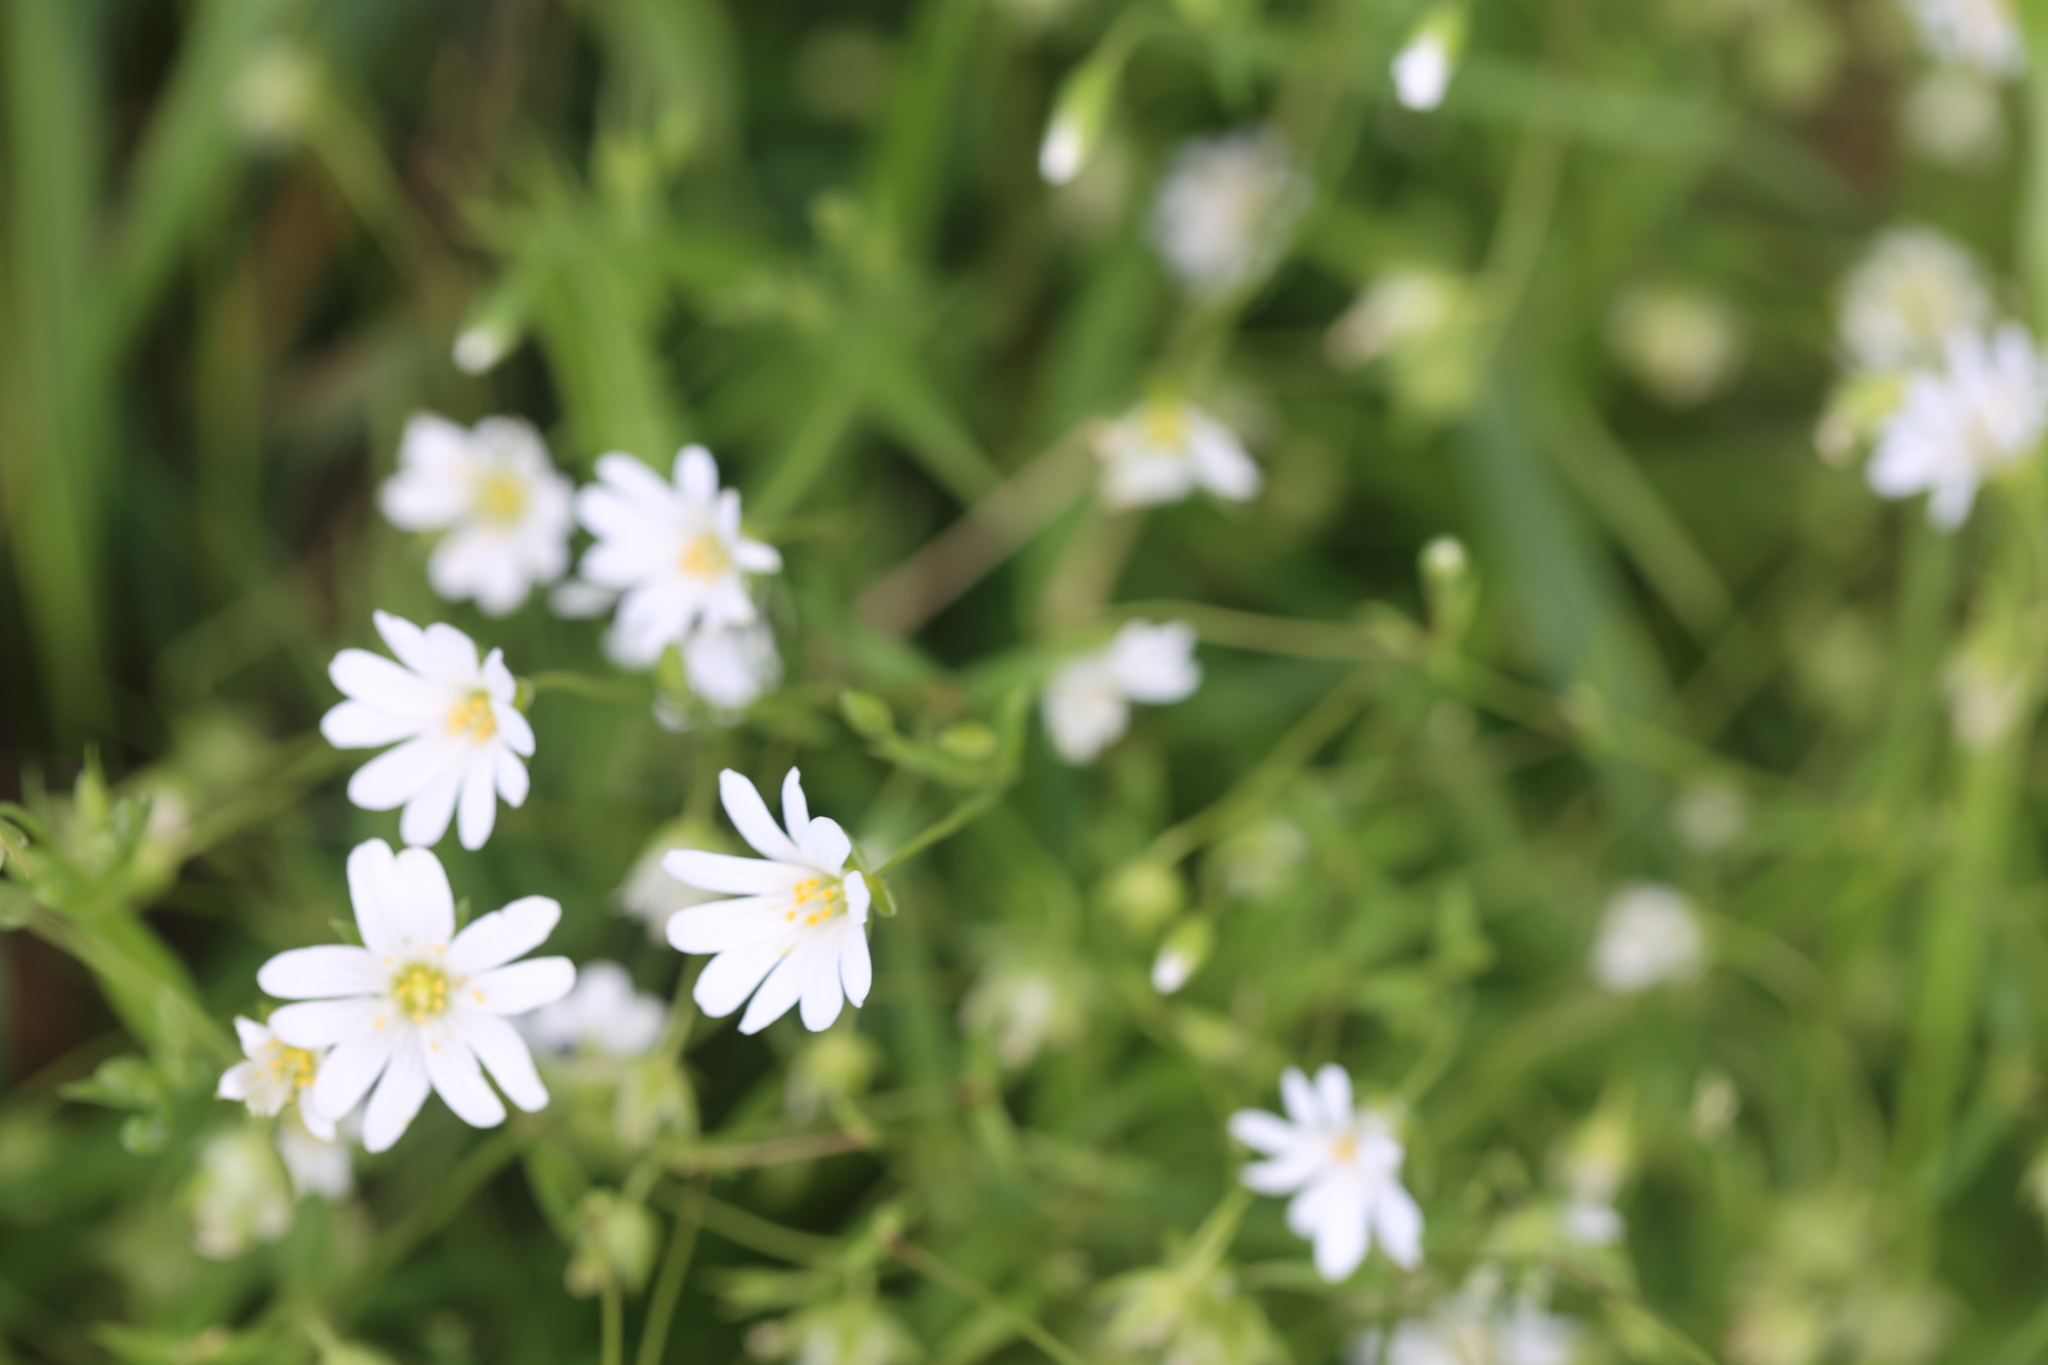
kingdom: Plantae
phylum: Tracheophyta
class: Magnoliopsida
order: Caryophyllales
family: Caryophyllaceae
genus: Rabelera
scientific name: Rabelera holostea
